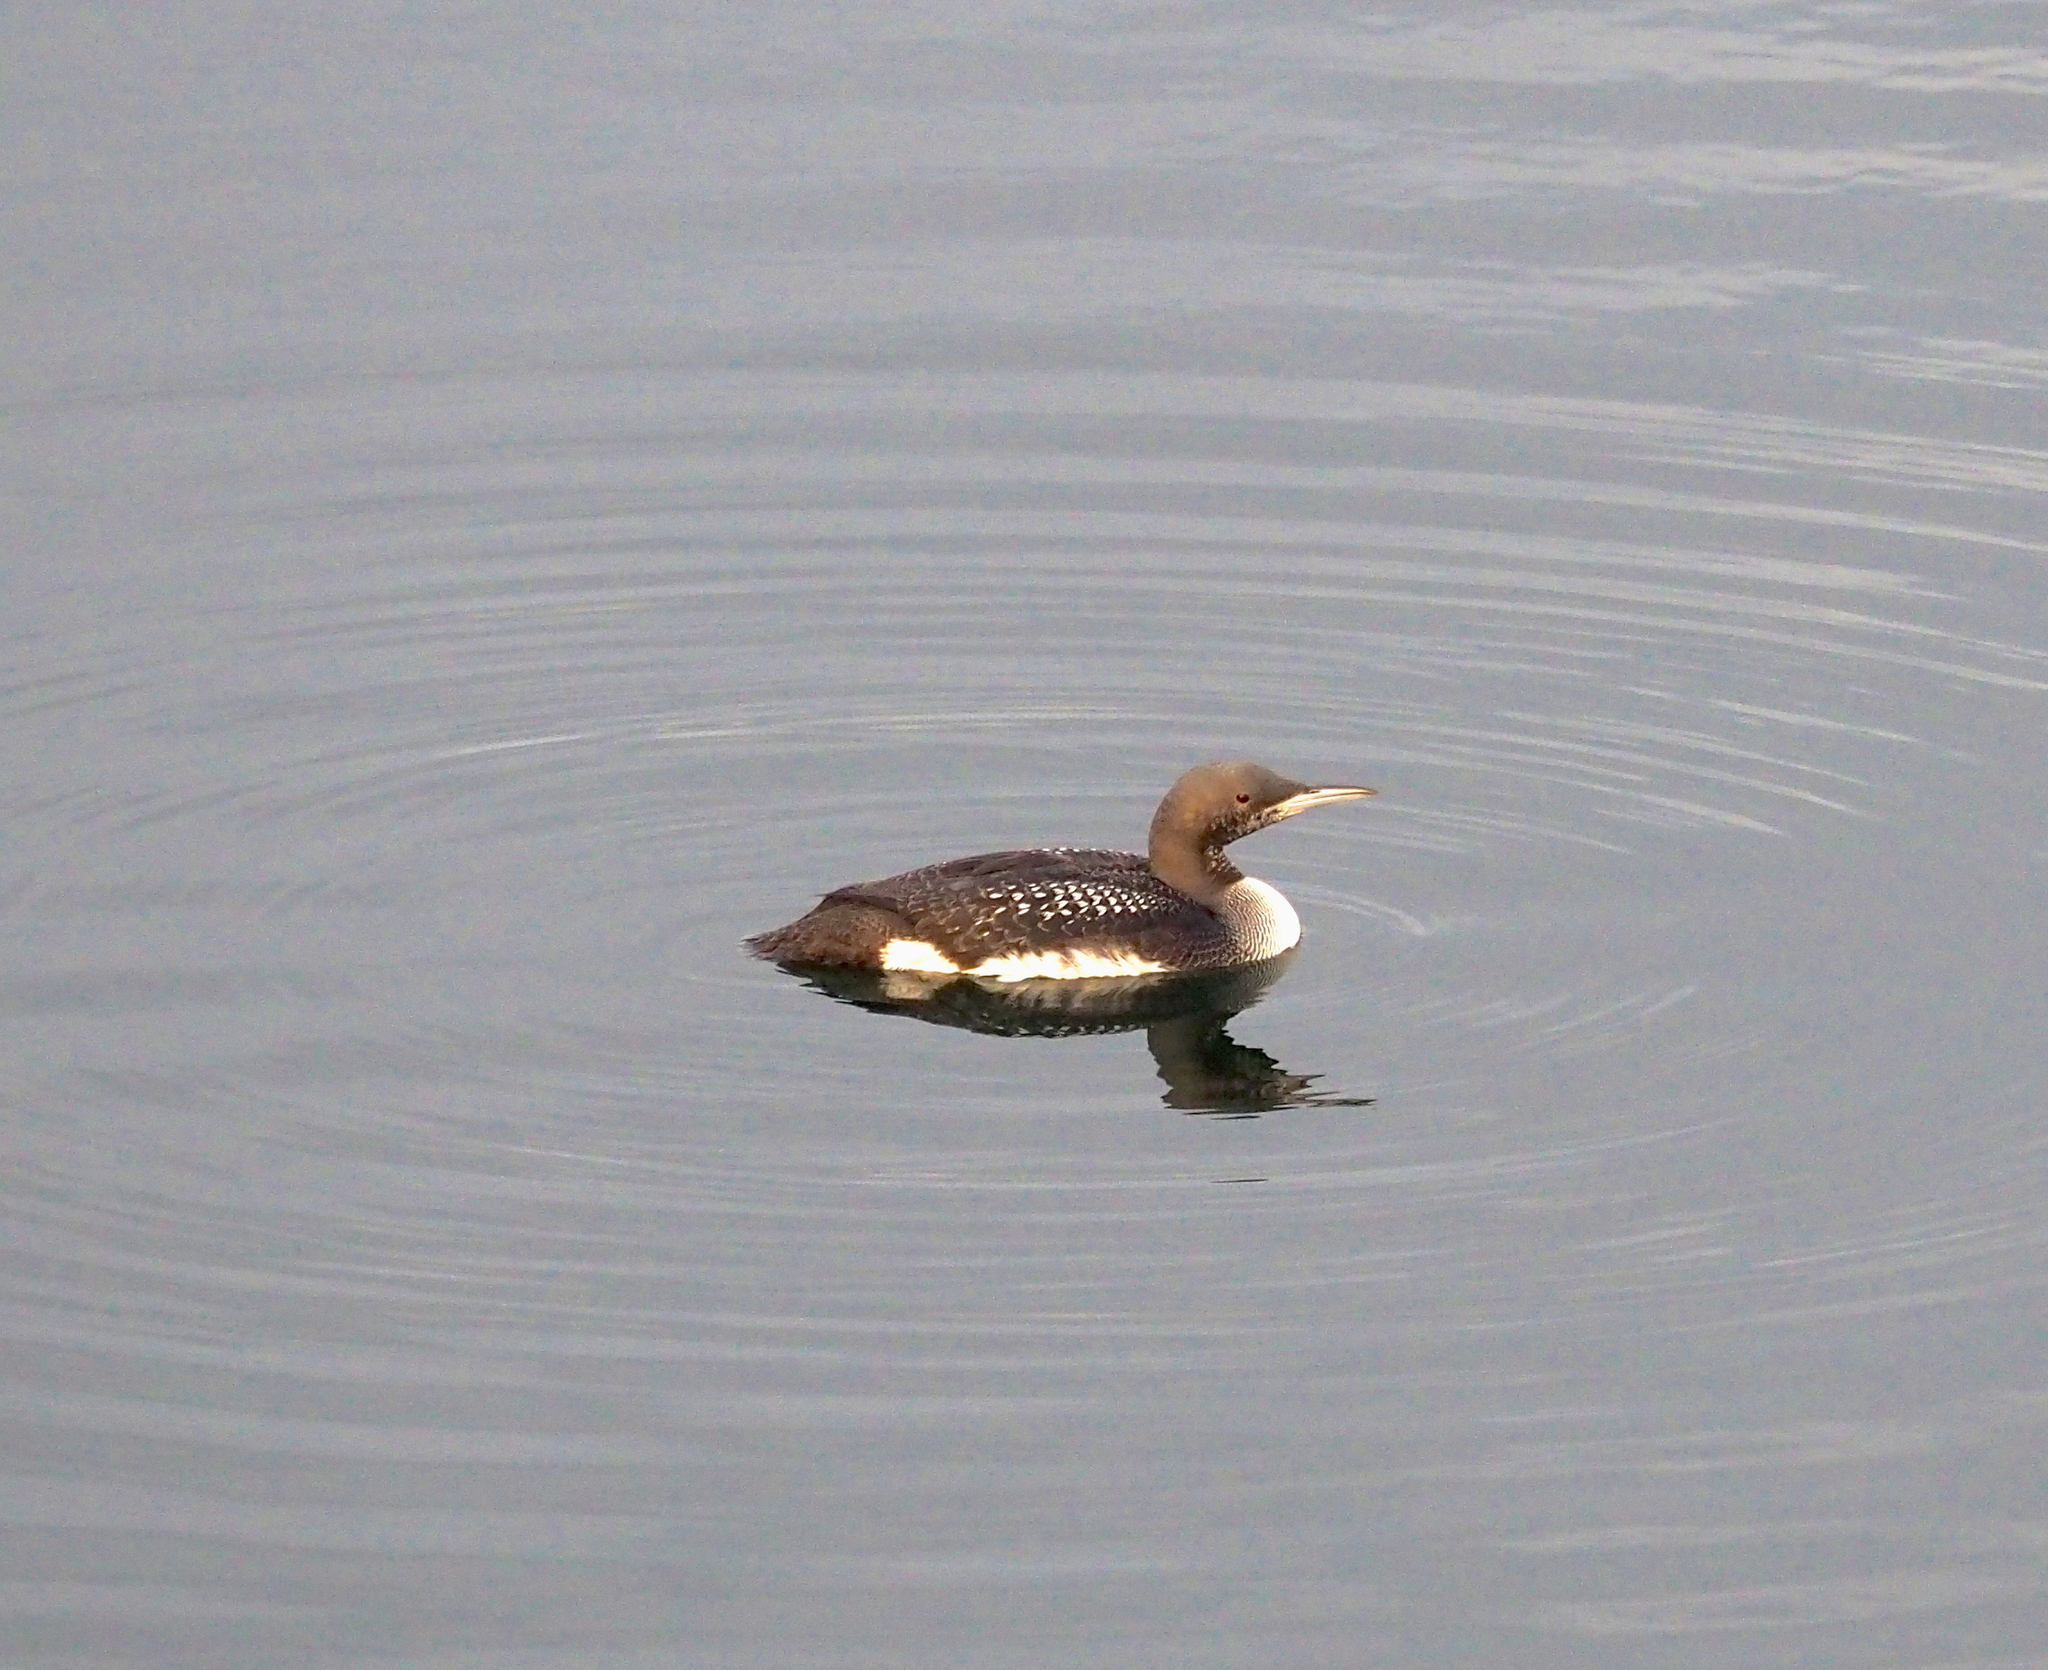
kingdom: Animalia
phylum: Chordata
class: Aves
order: Gaviiformes
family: Gaviidae
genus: Gavia
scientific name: Gavia arctica
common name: Black-throated loon
